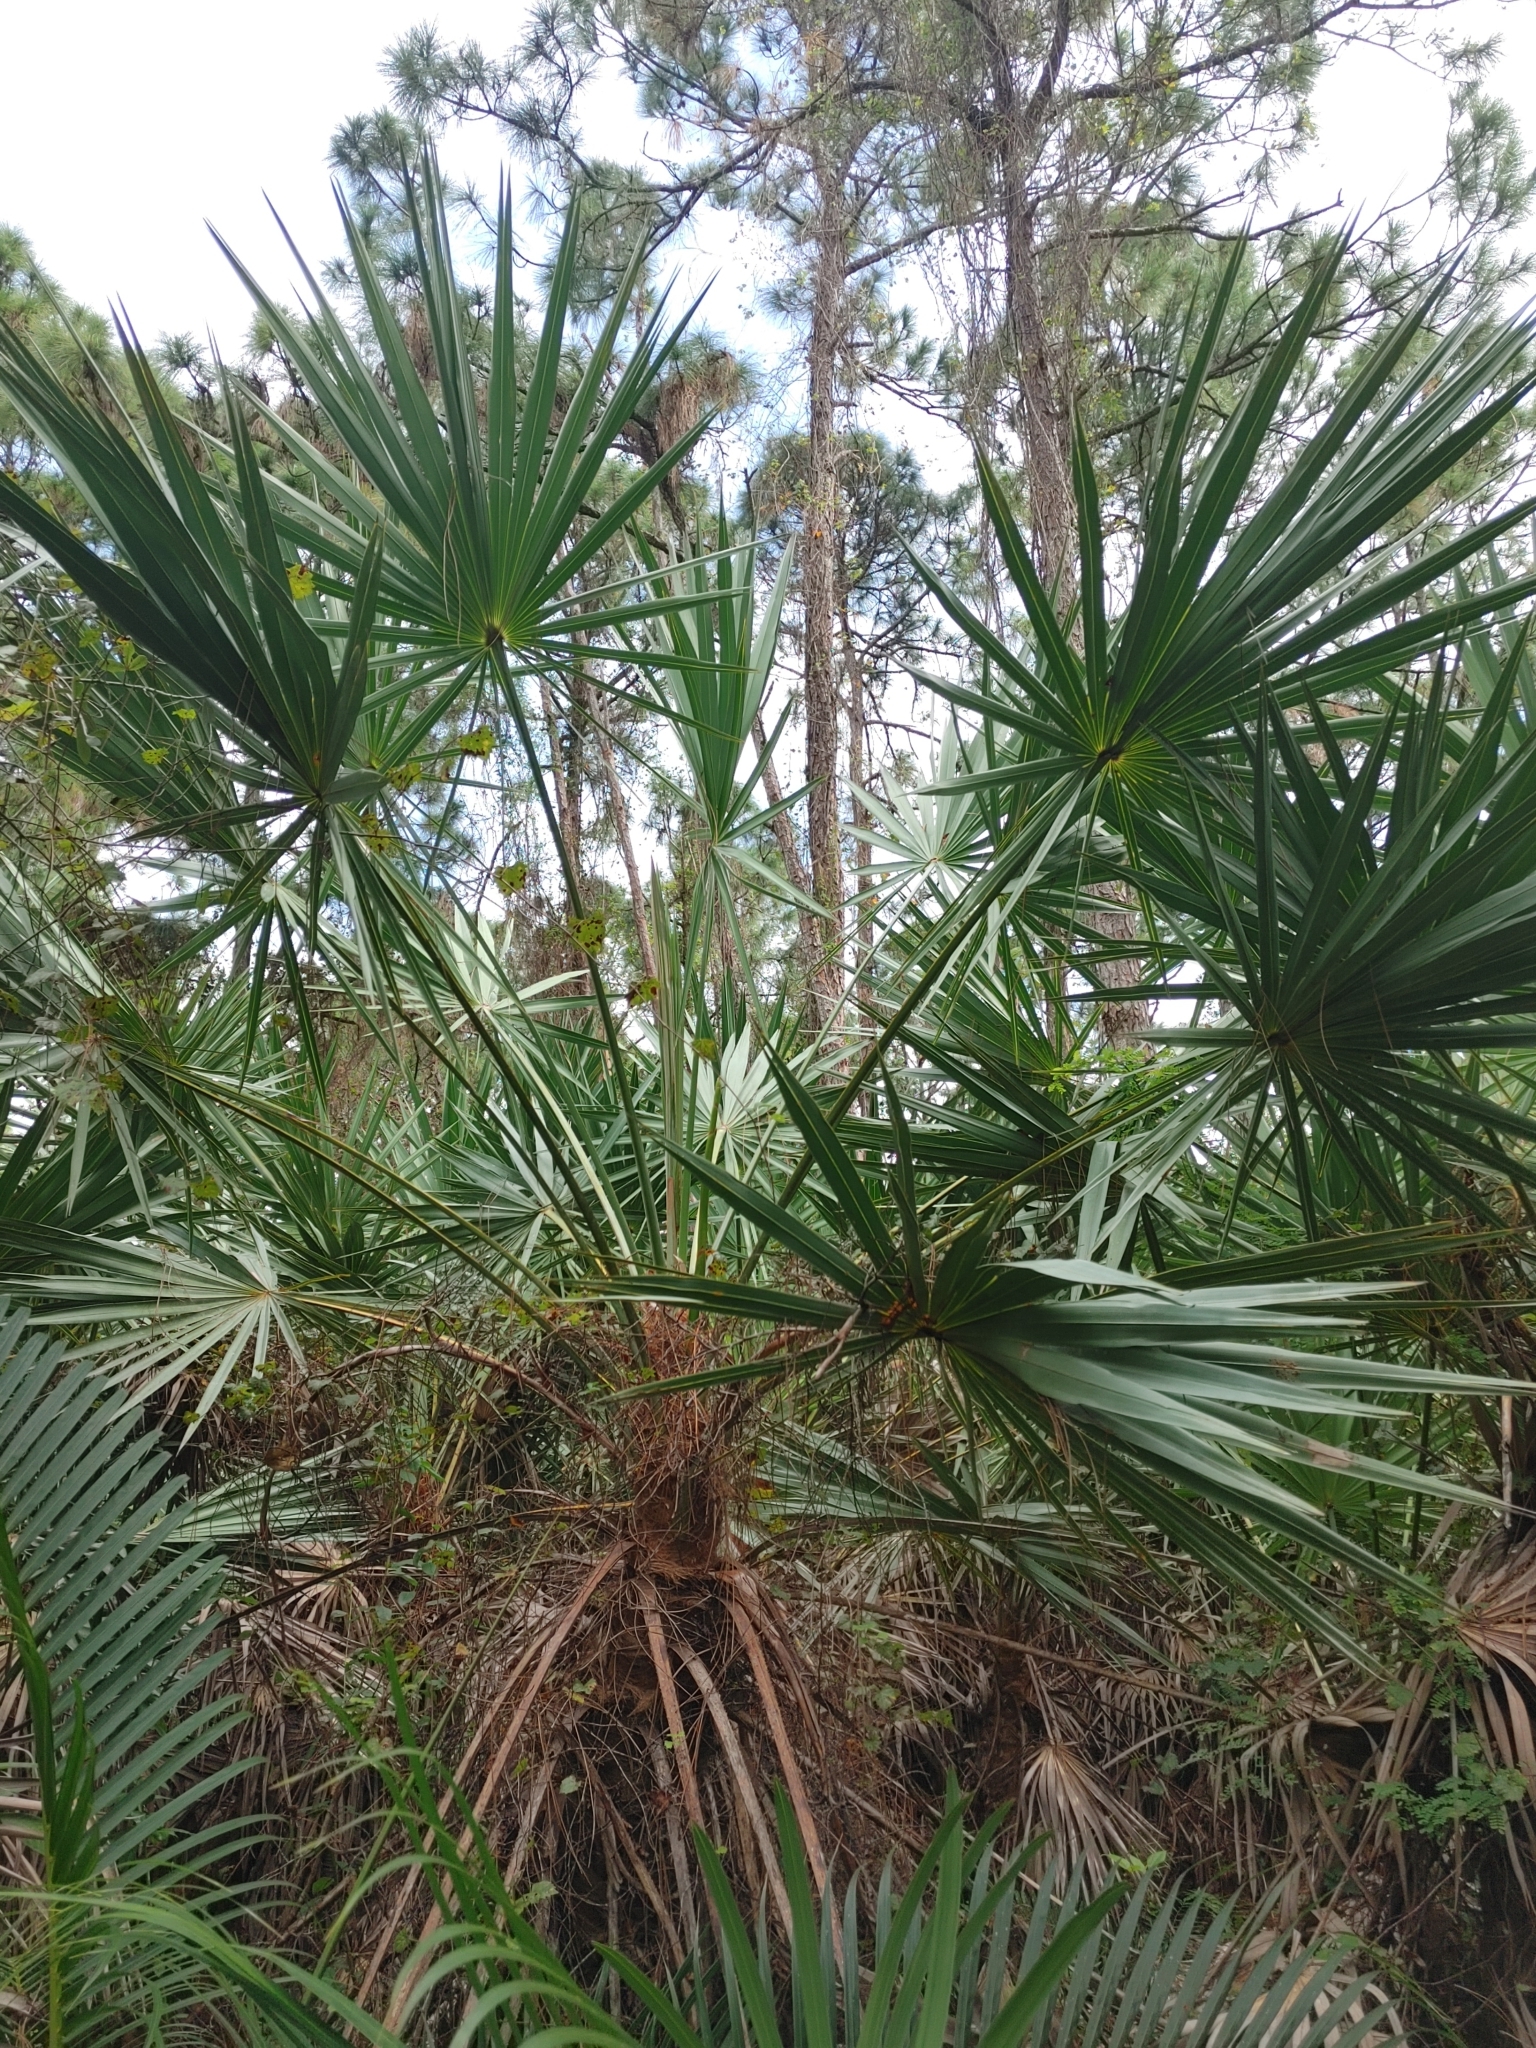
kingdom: Plantae
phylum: Tracheophyta
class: Liliopsida
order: Arecales
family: Arecaceae
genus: Serenoa
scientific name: Serenoa repens
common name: Saw-palmetto
